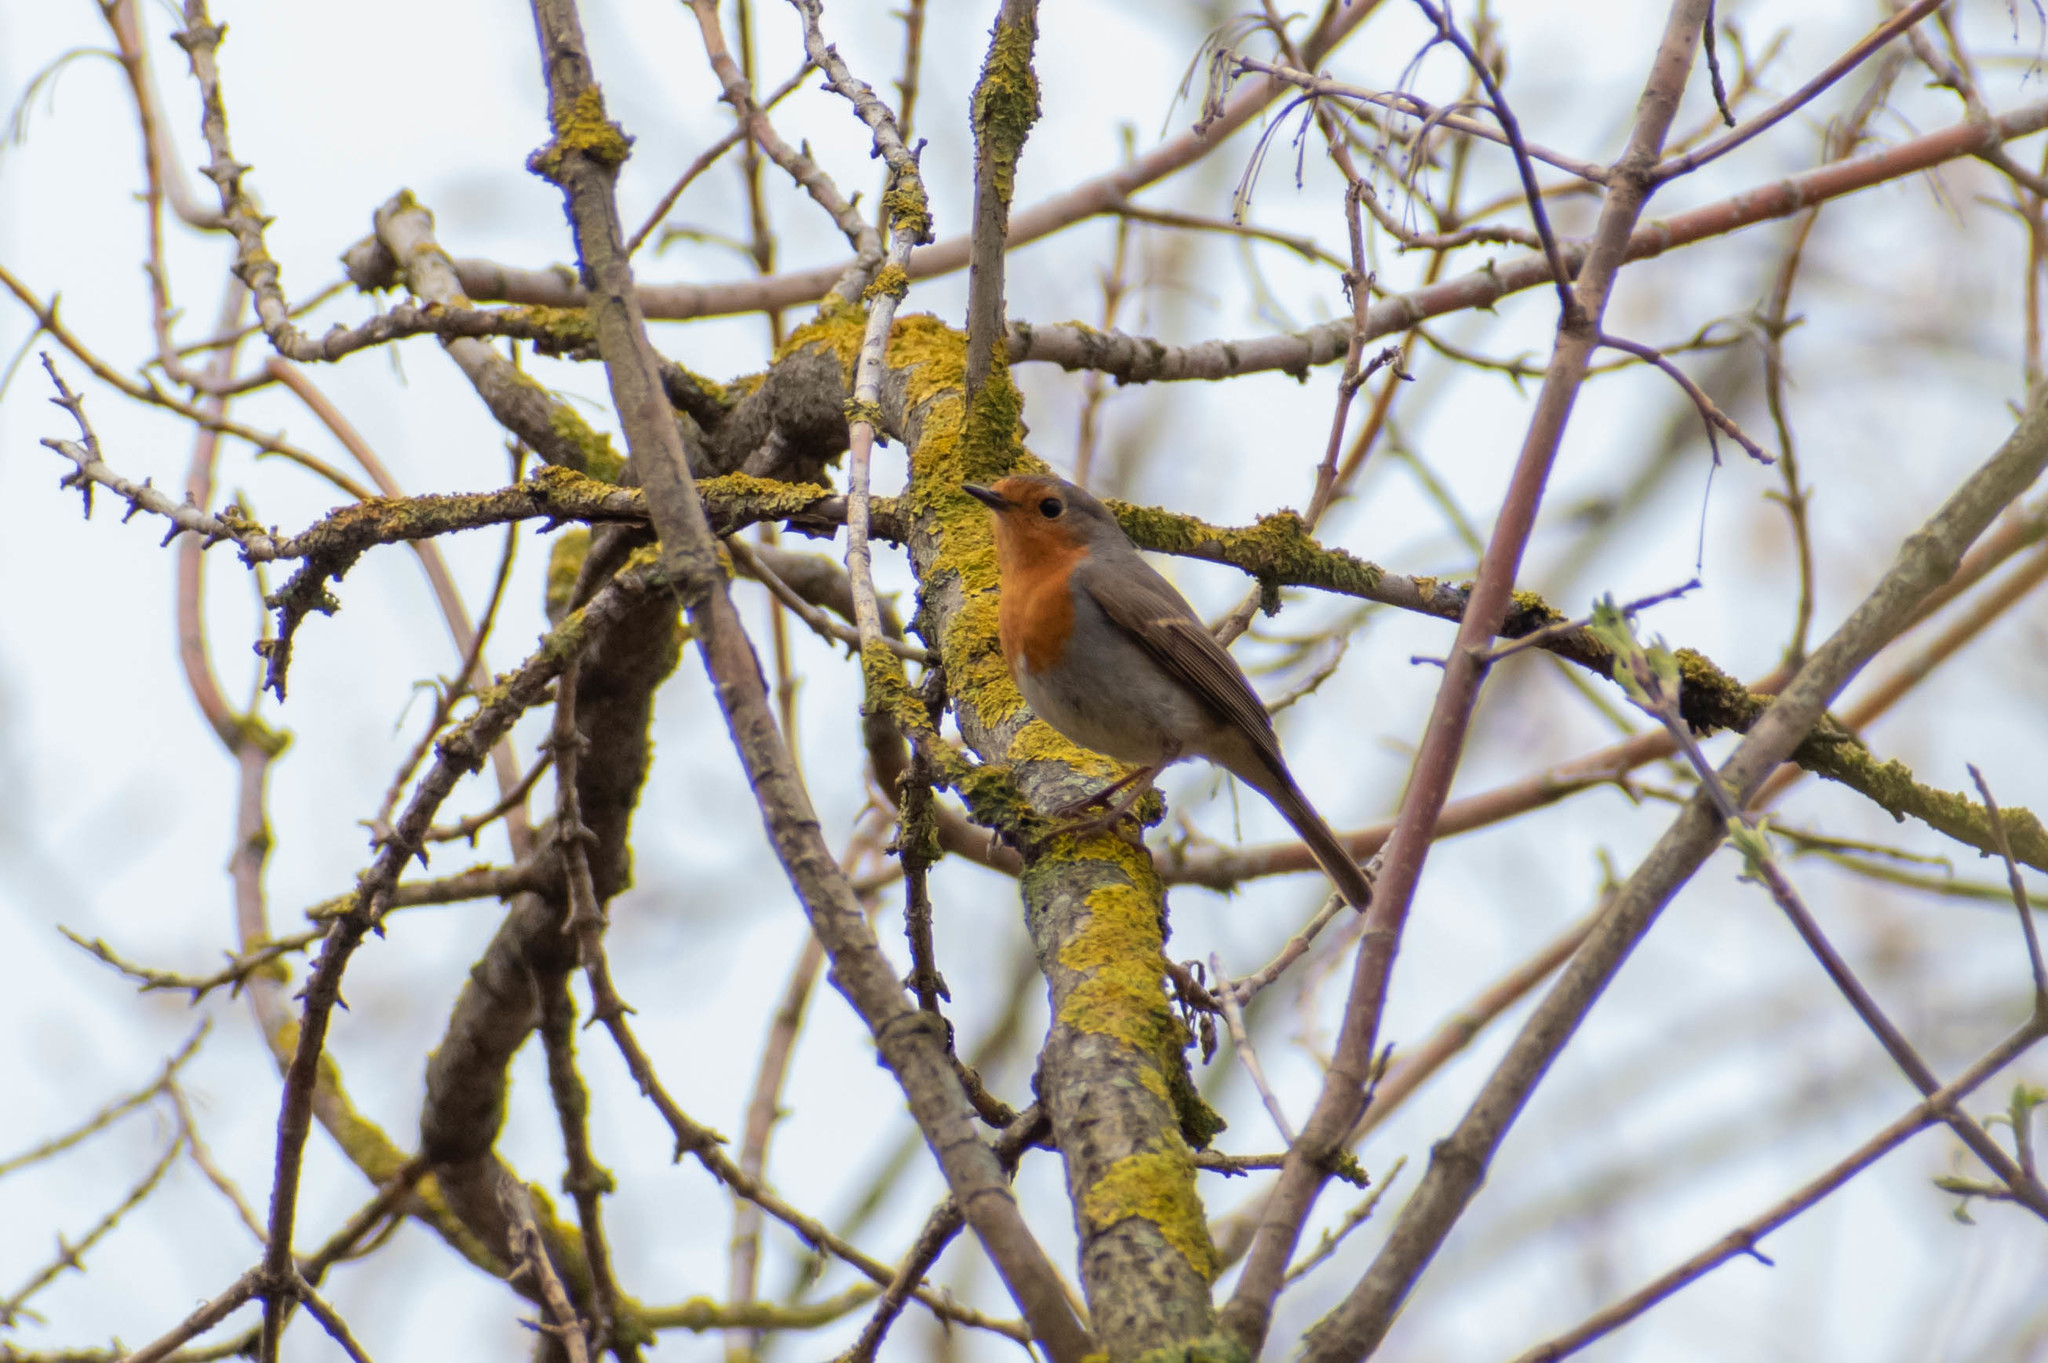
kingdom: Animalia
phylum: Chordata
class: Aves
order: Passeriformes
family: Muscicapidae
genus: Erithacus
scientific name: Erithacus rubecula
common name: European robin
